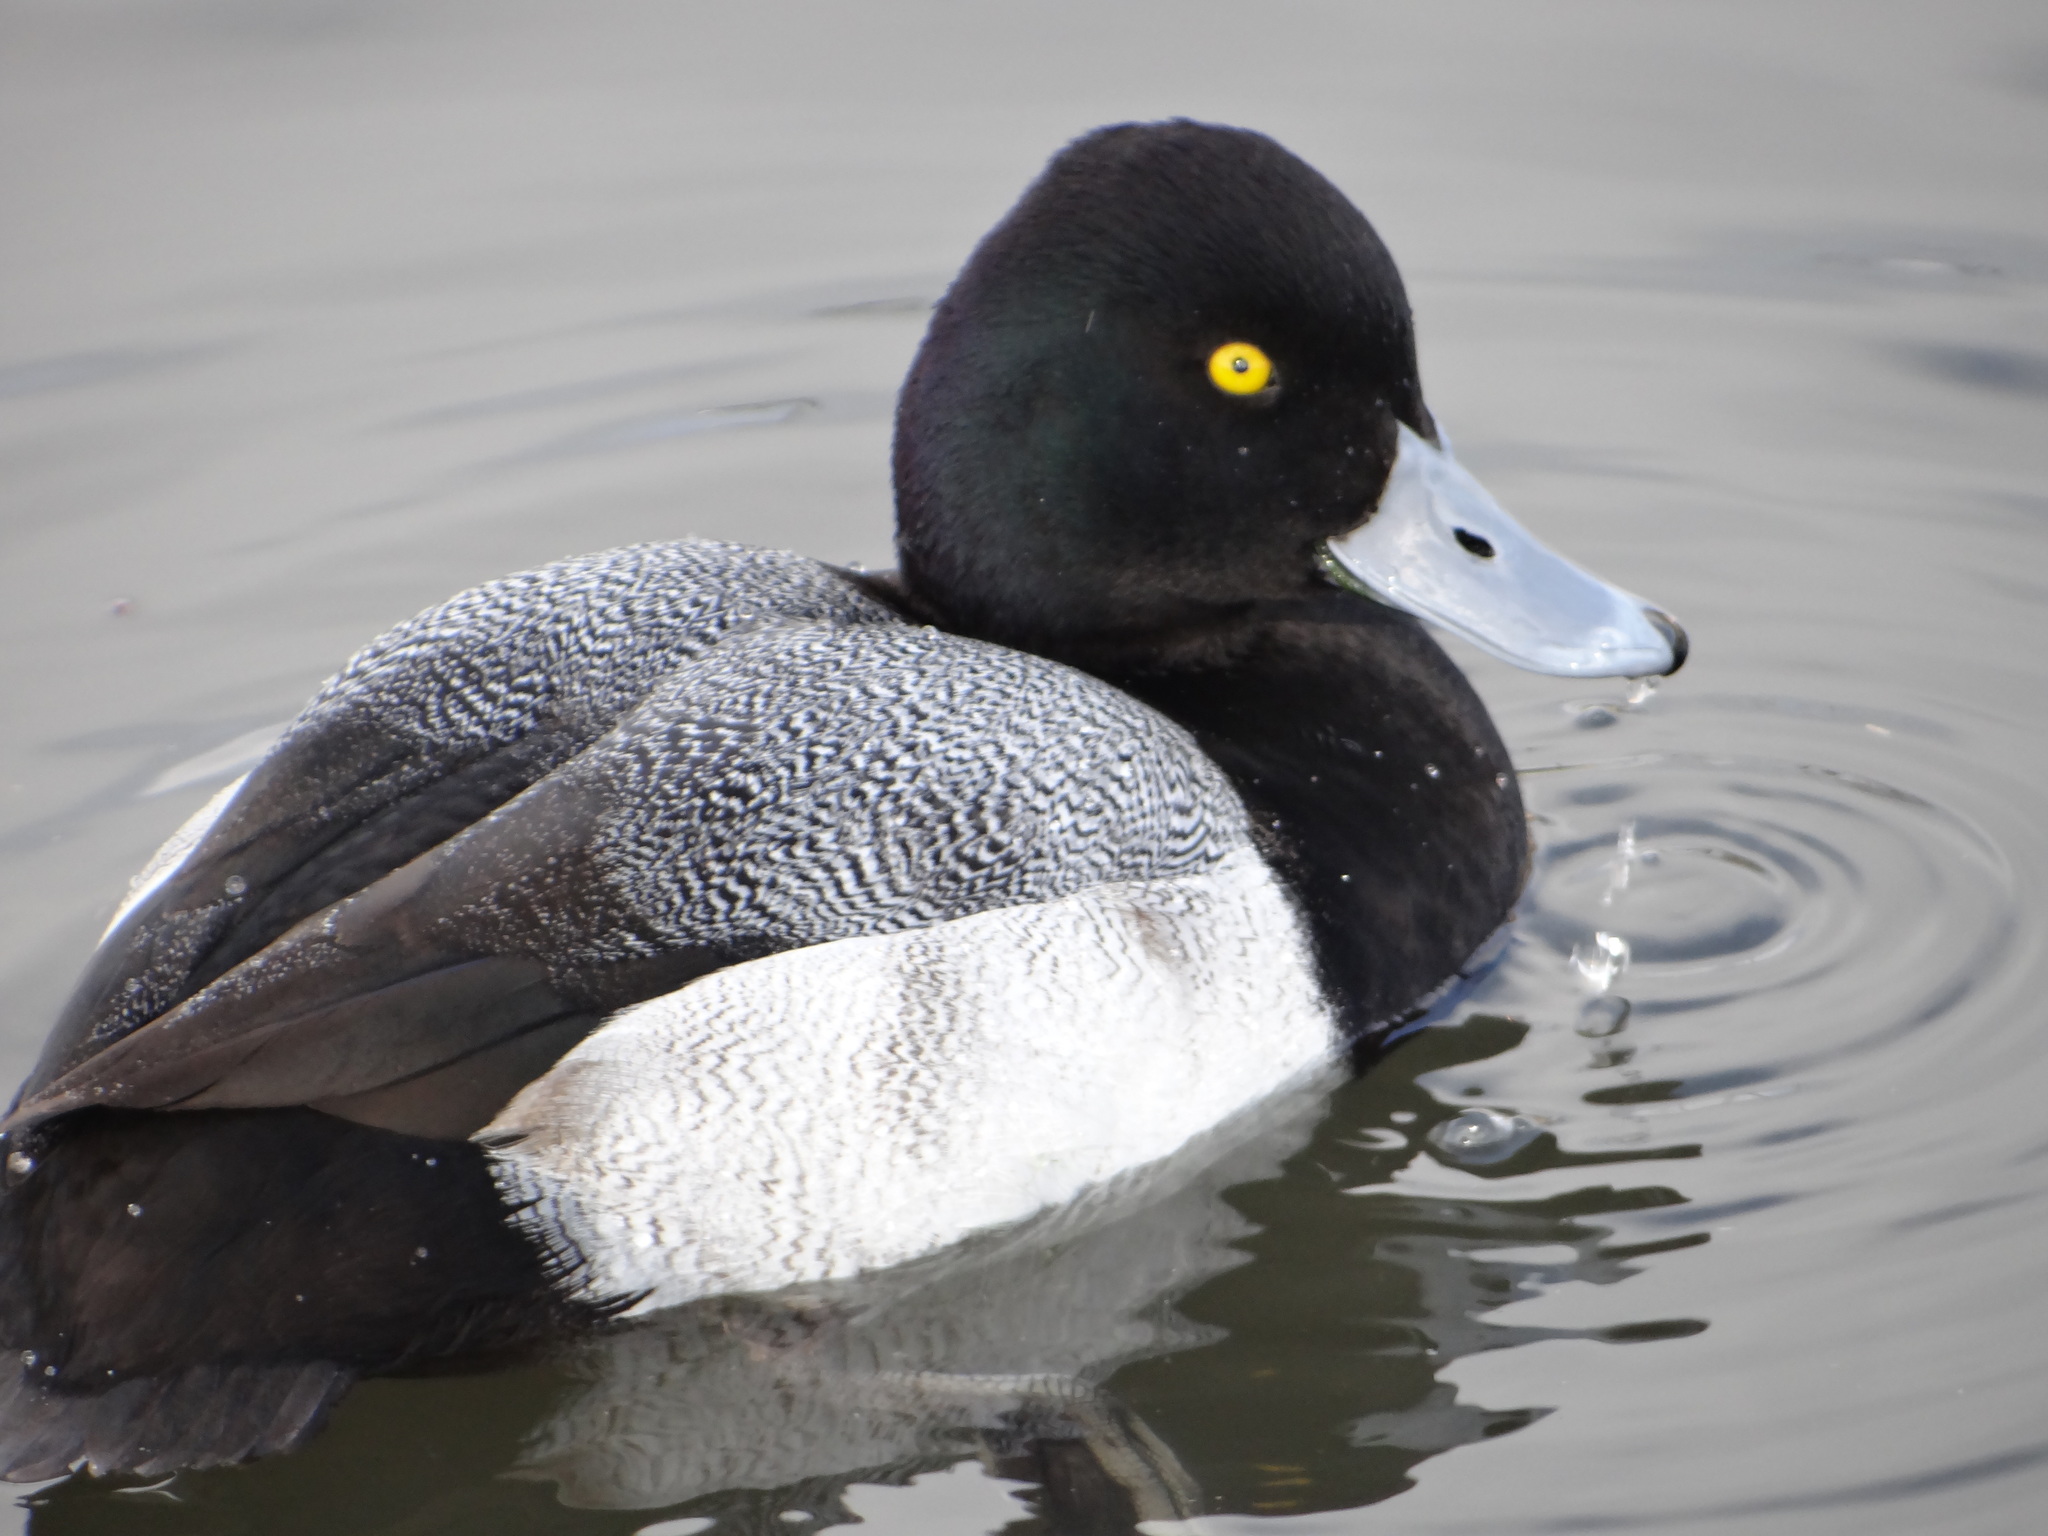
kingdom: Animalia
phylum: Chordata
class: Aves
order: Anseriformes
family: Anatidae
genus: Aythya
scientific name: Aythya affinis
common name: Lesser scaup
